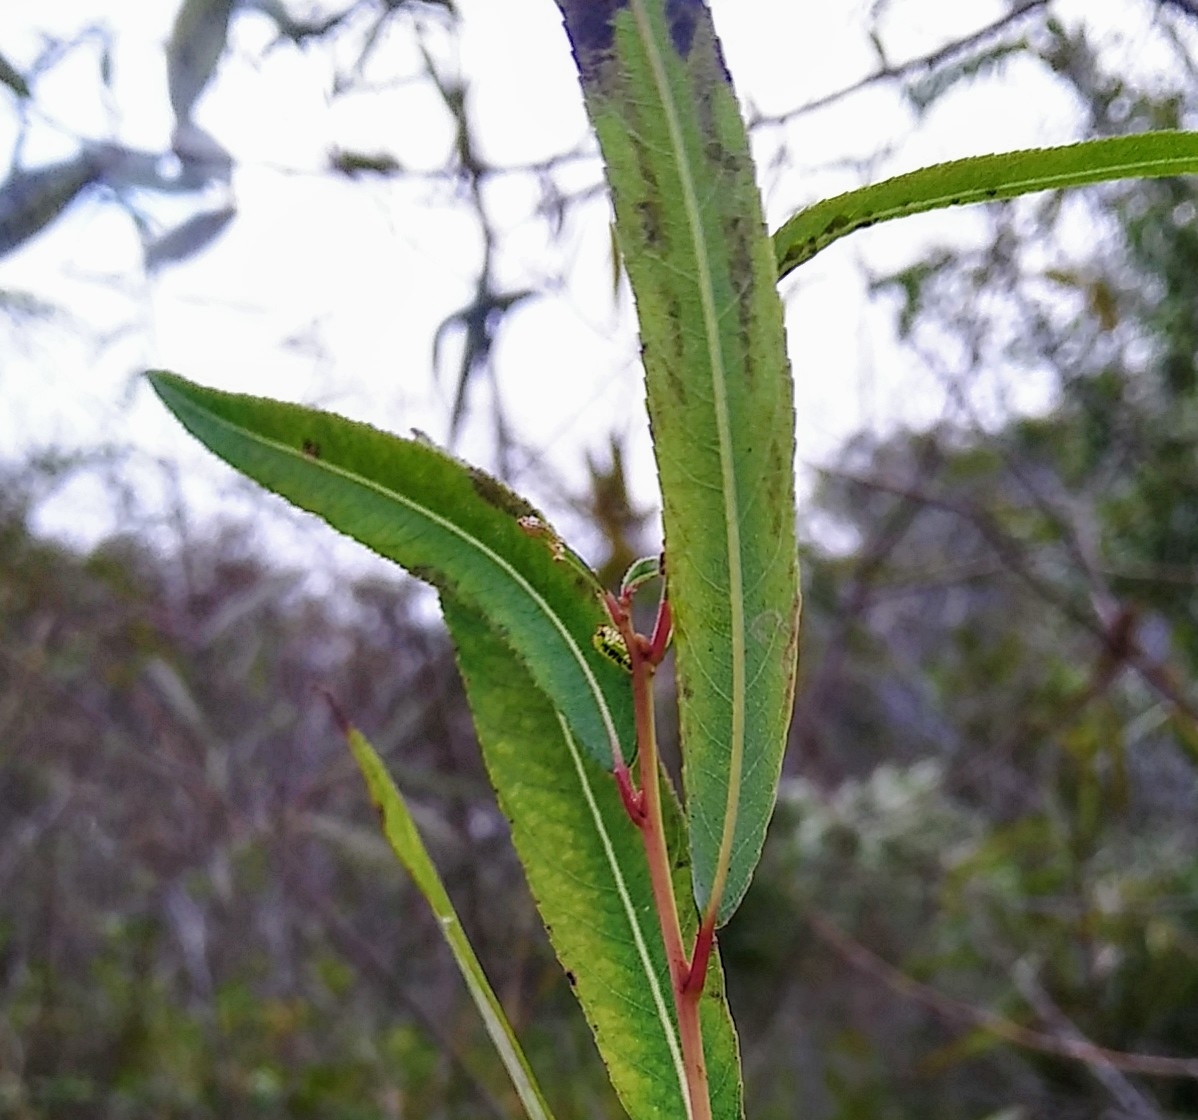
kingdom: Plantae
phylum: Tracheophyta
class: Magnoliopsida
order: Malpighiales
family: Salicaceae
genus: Salix
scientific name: Salix caroliniana
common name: Carolina willow
